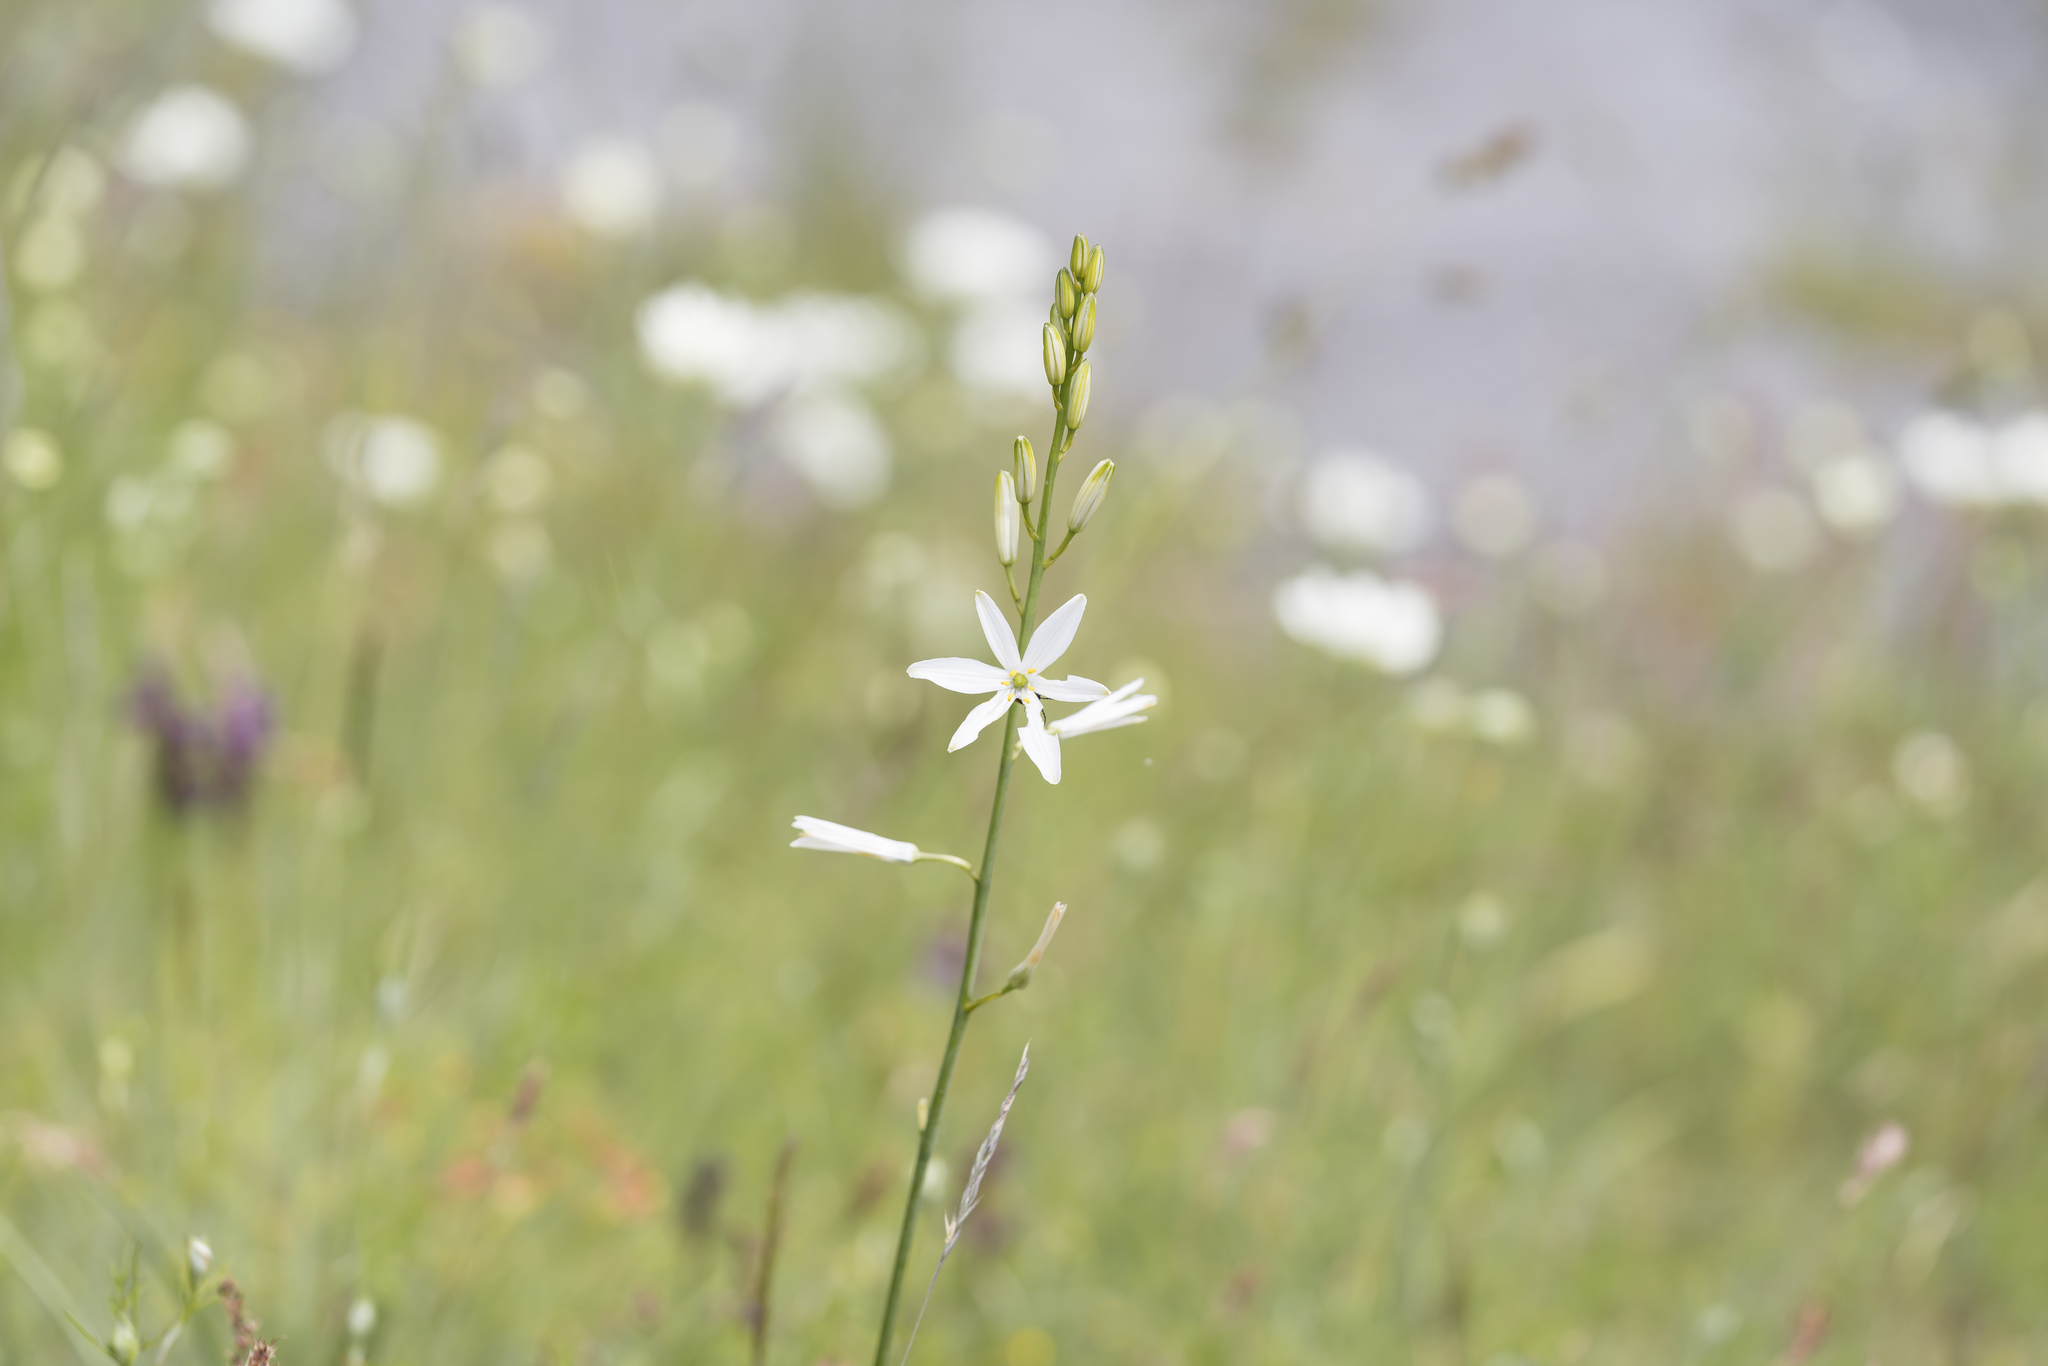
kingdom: Plantae
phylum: Tracheophyta
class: Liliopsida
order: Asparagales
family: Asparagaceae
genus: Anthericum
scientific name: Anthericum liliago
